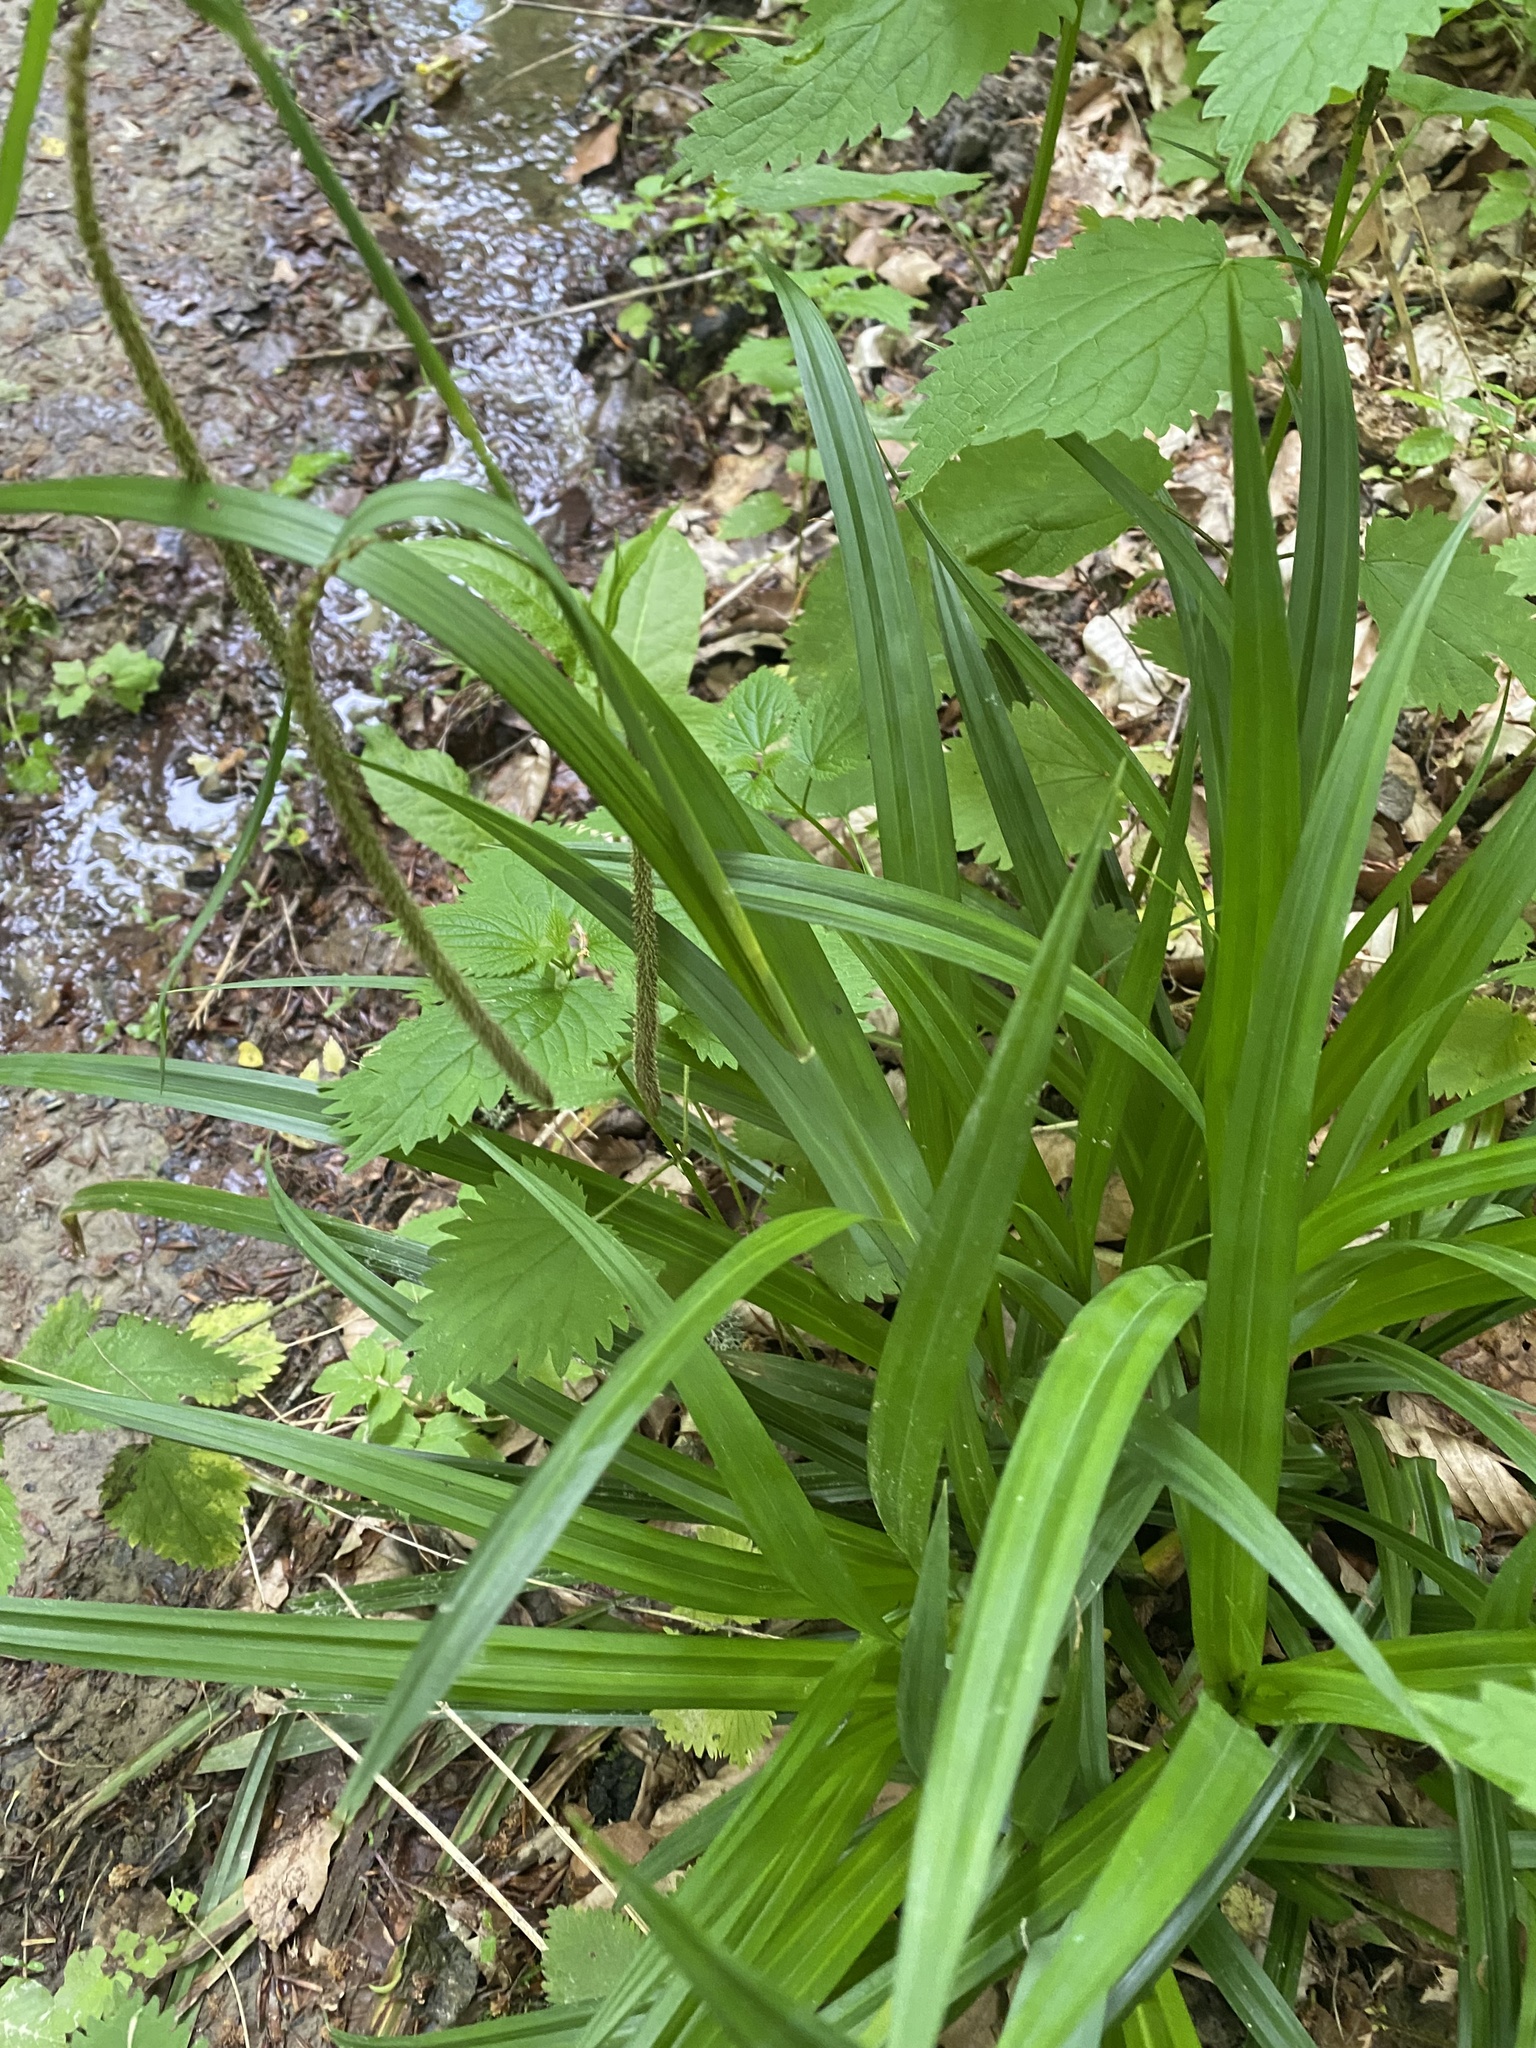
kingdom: Plantae
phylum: Tracheophyta
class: Liliopsida
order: Poales
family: Cyperaceae
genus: Carex
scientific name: Carex pendula
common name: Pendulous sedge
